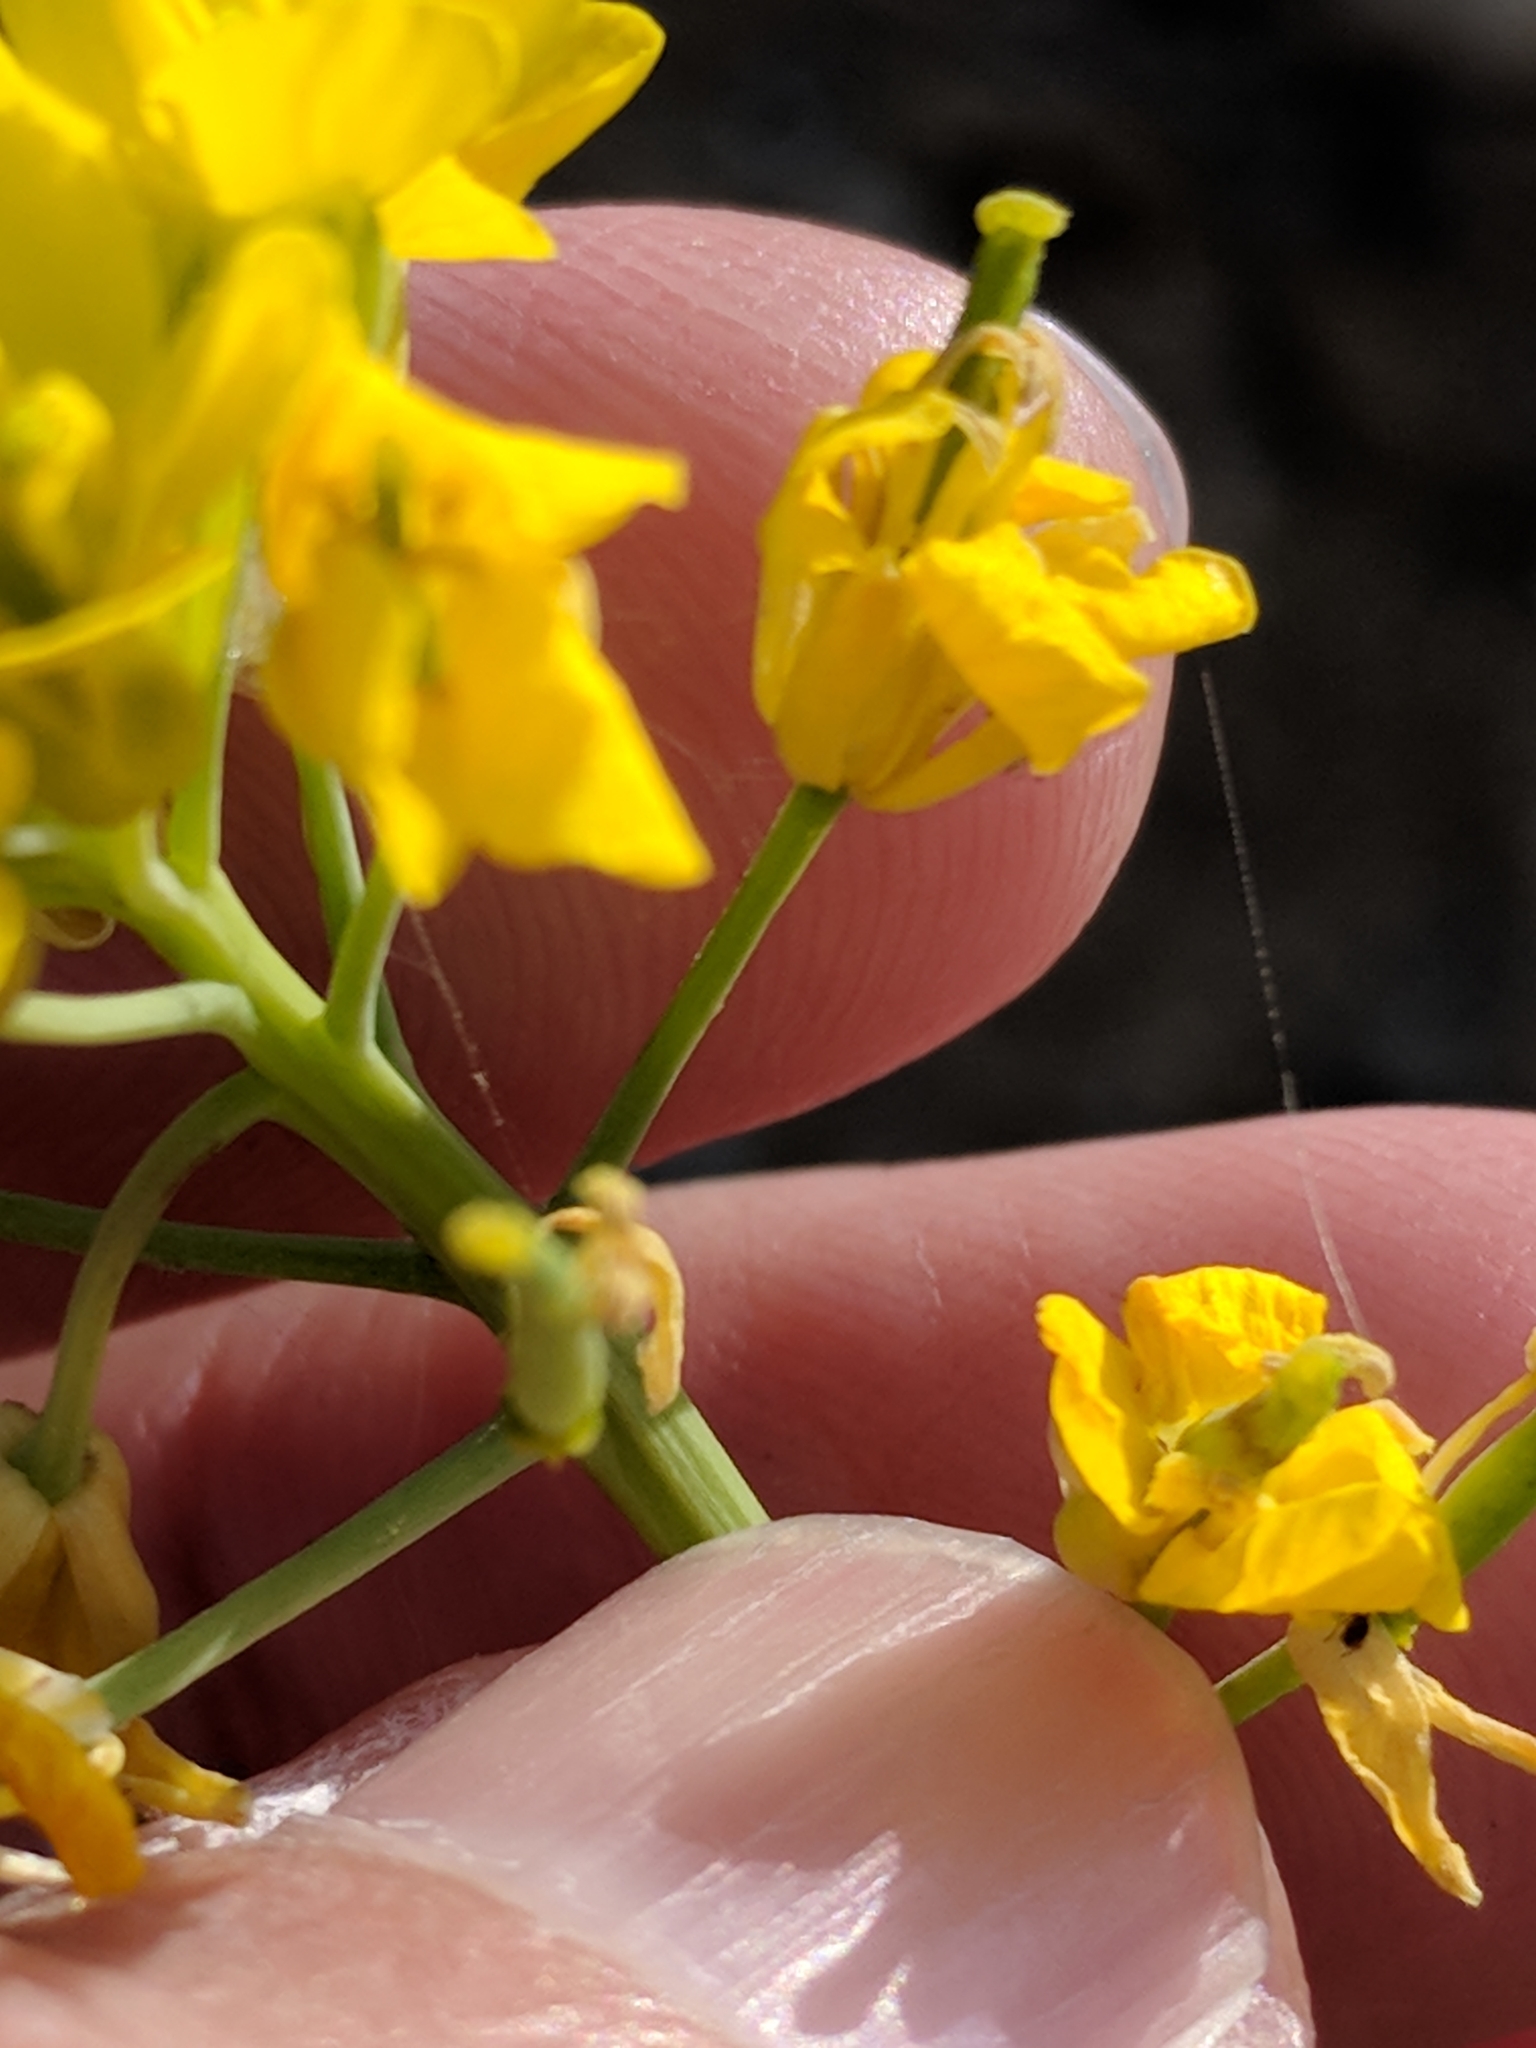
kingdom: Plantae
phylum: Tracheophyta
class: Magnoliopsida
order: Brassicales
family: Brassicaceae
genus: Brassica
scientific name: Brassica rapa
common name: Field mustard
